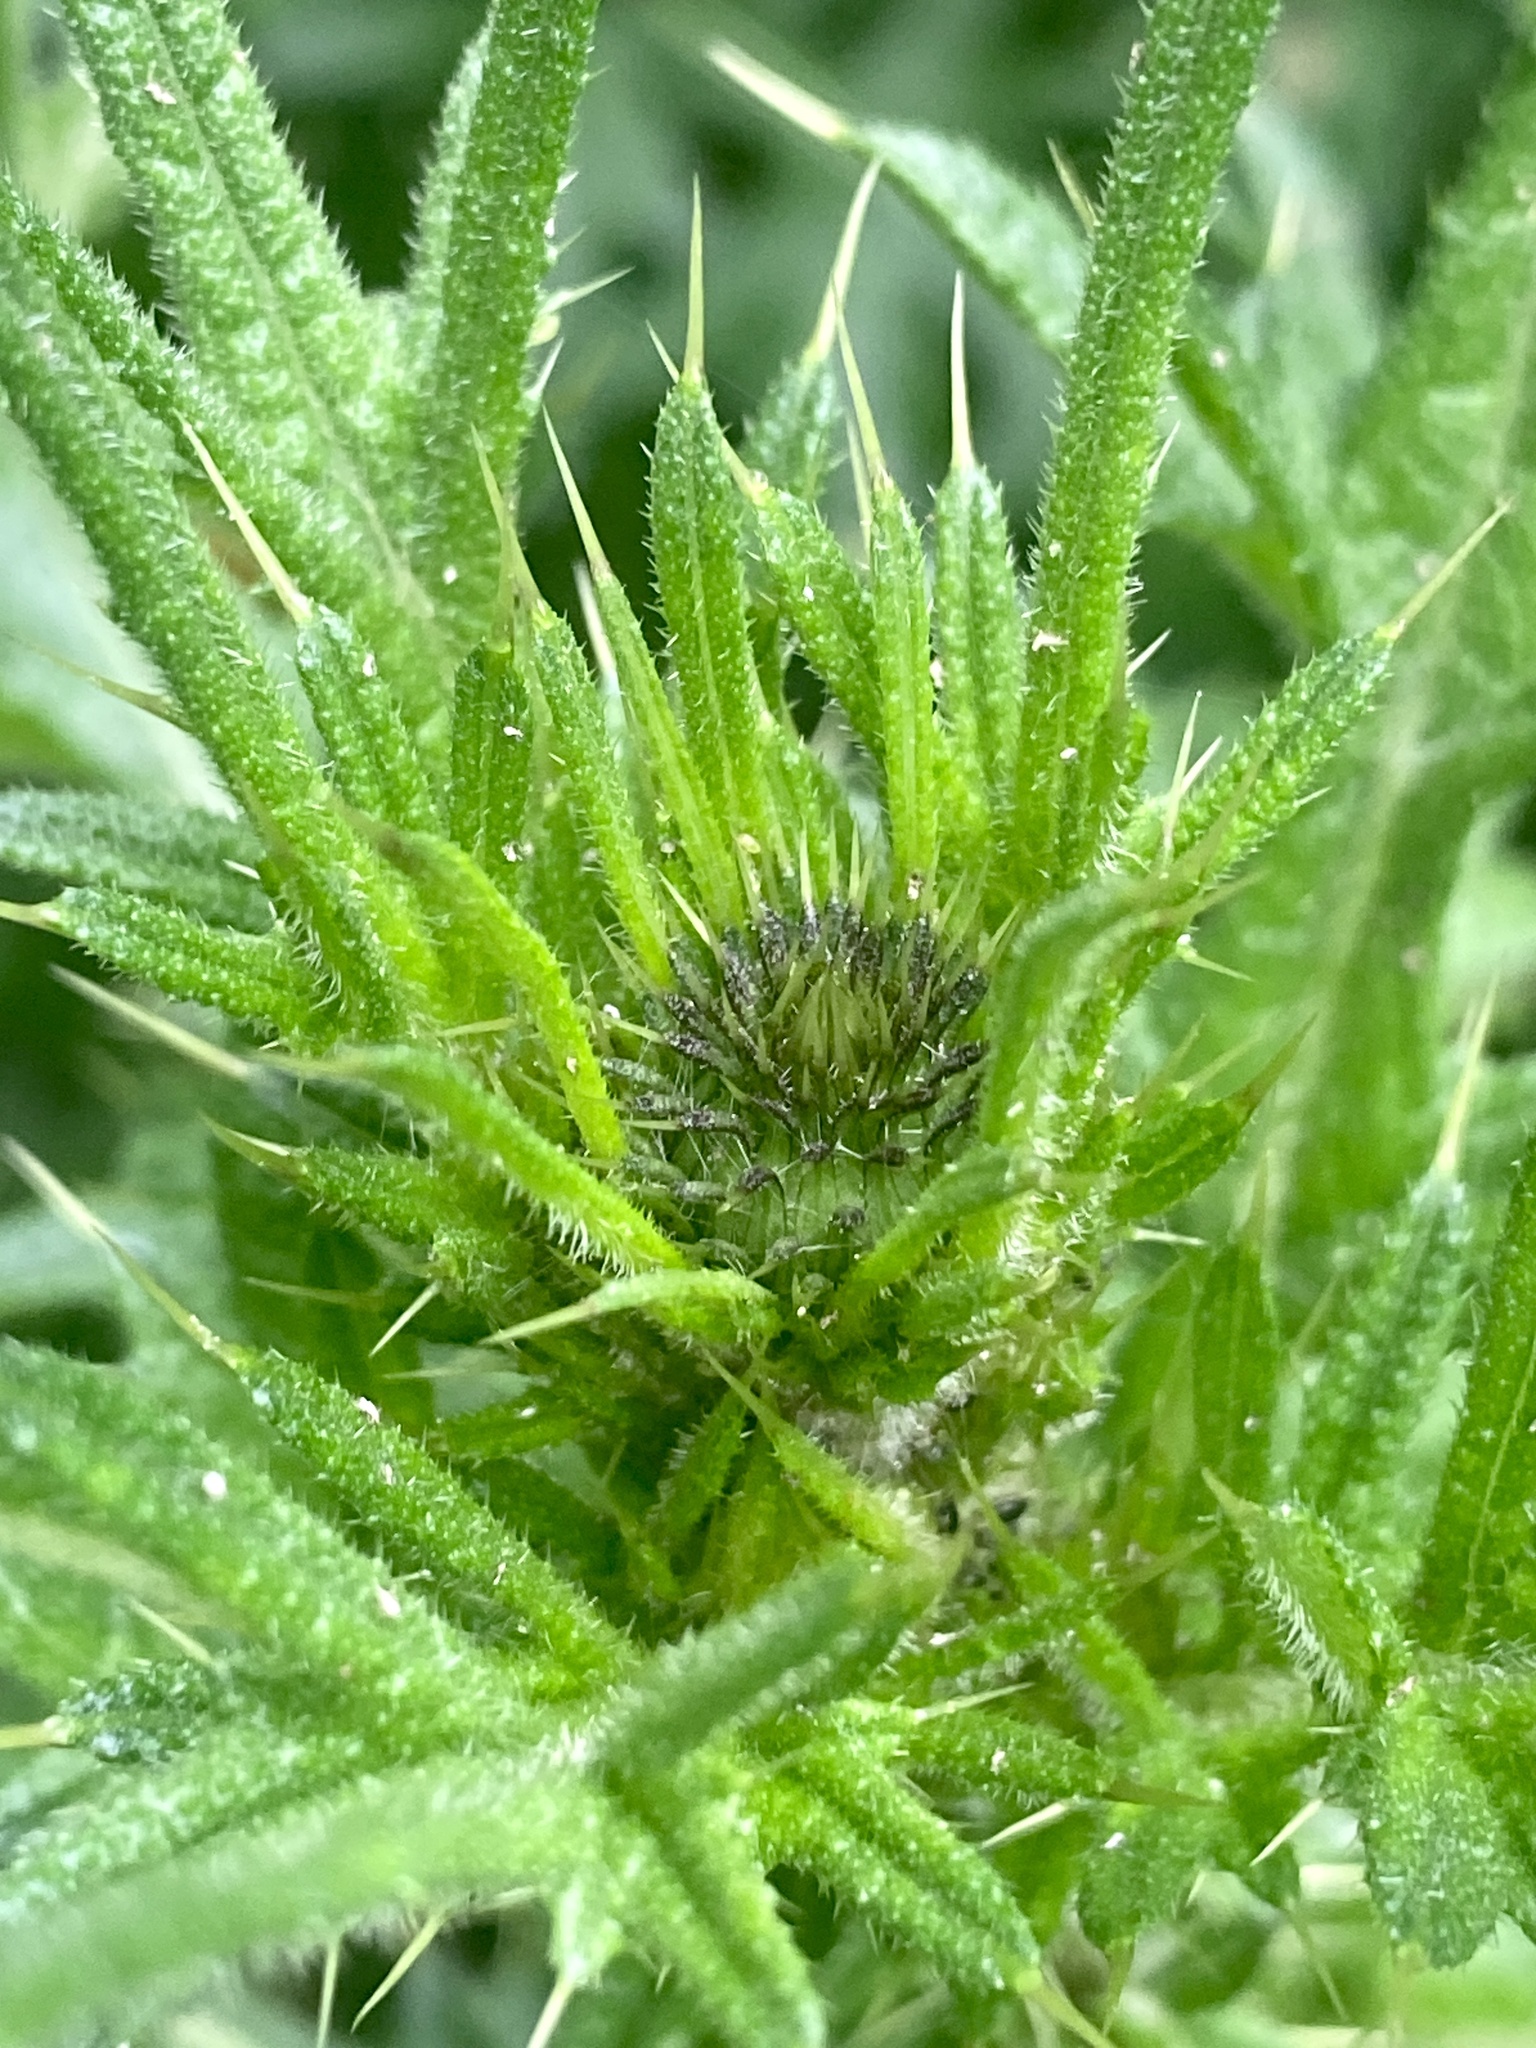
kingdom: Plantae
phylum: Tracheophyta
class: Magnoliopsida
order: Asterales
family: Asteraceae
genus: Cirsium
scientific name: Cirsium vulgare
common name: Bull thistle
